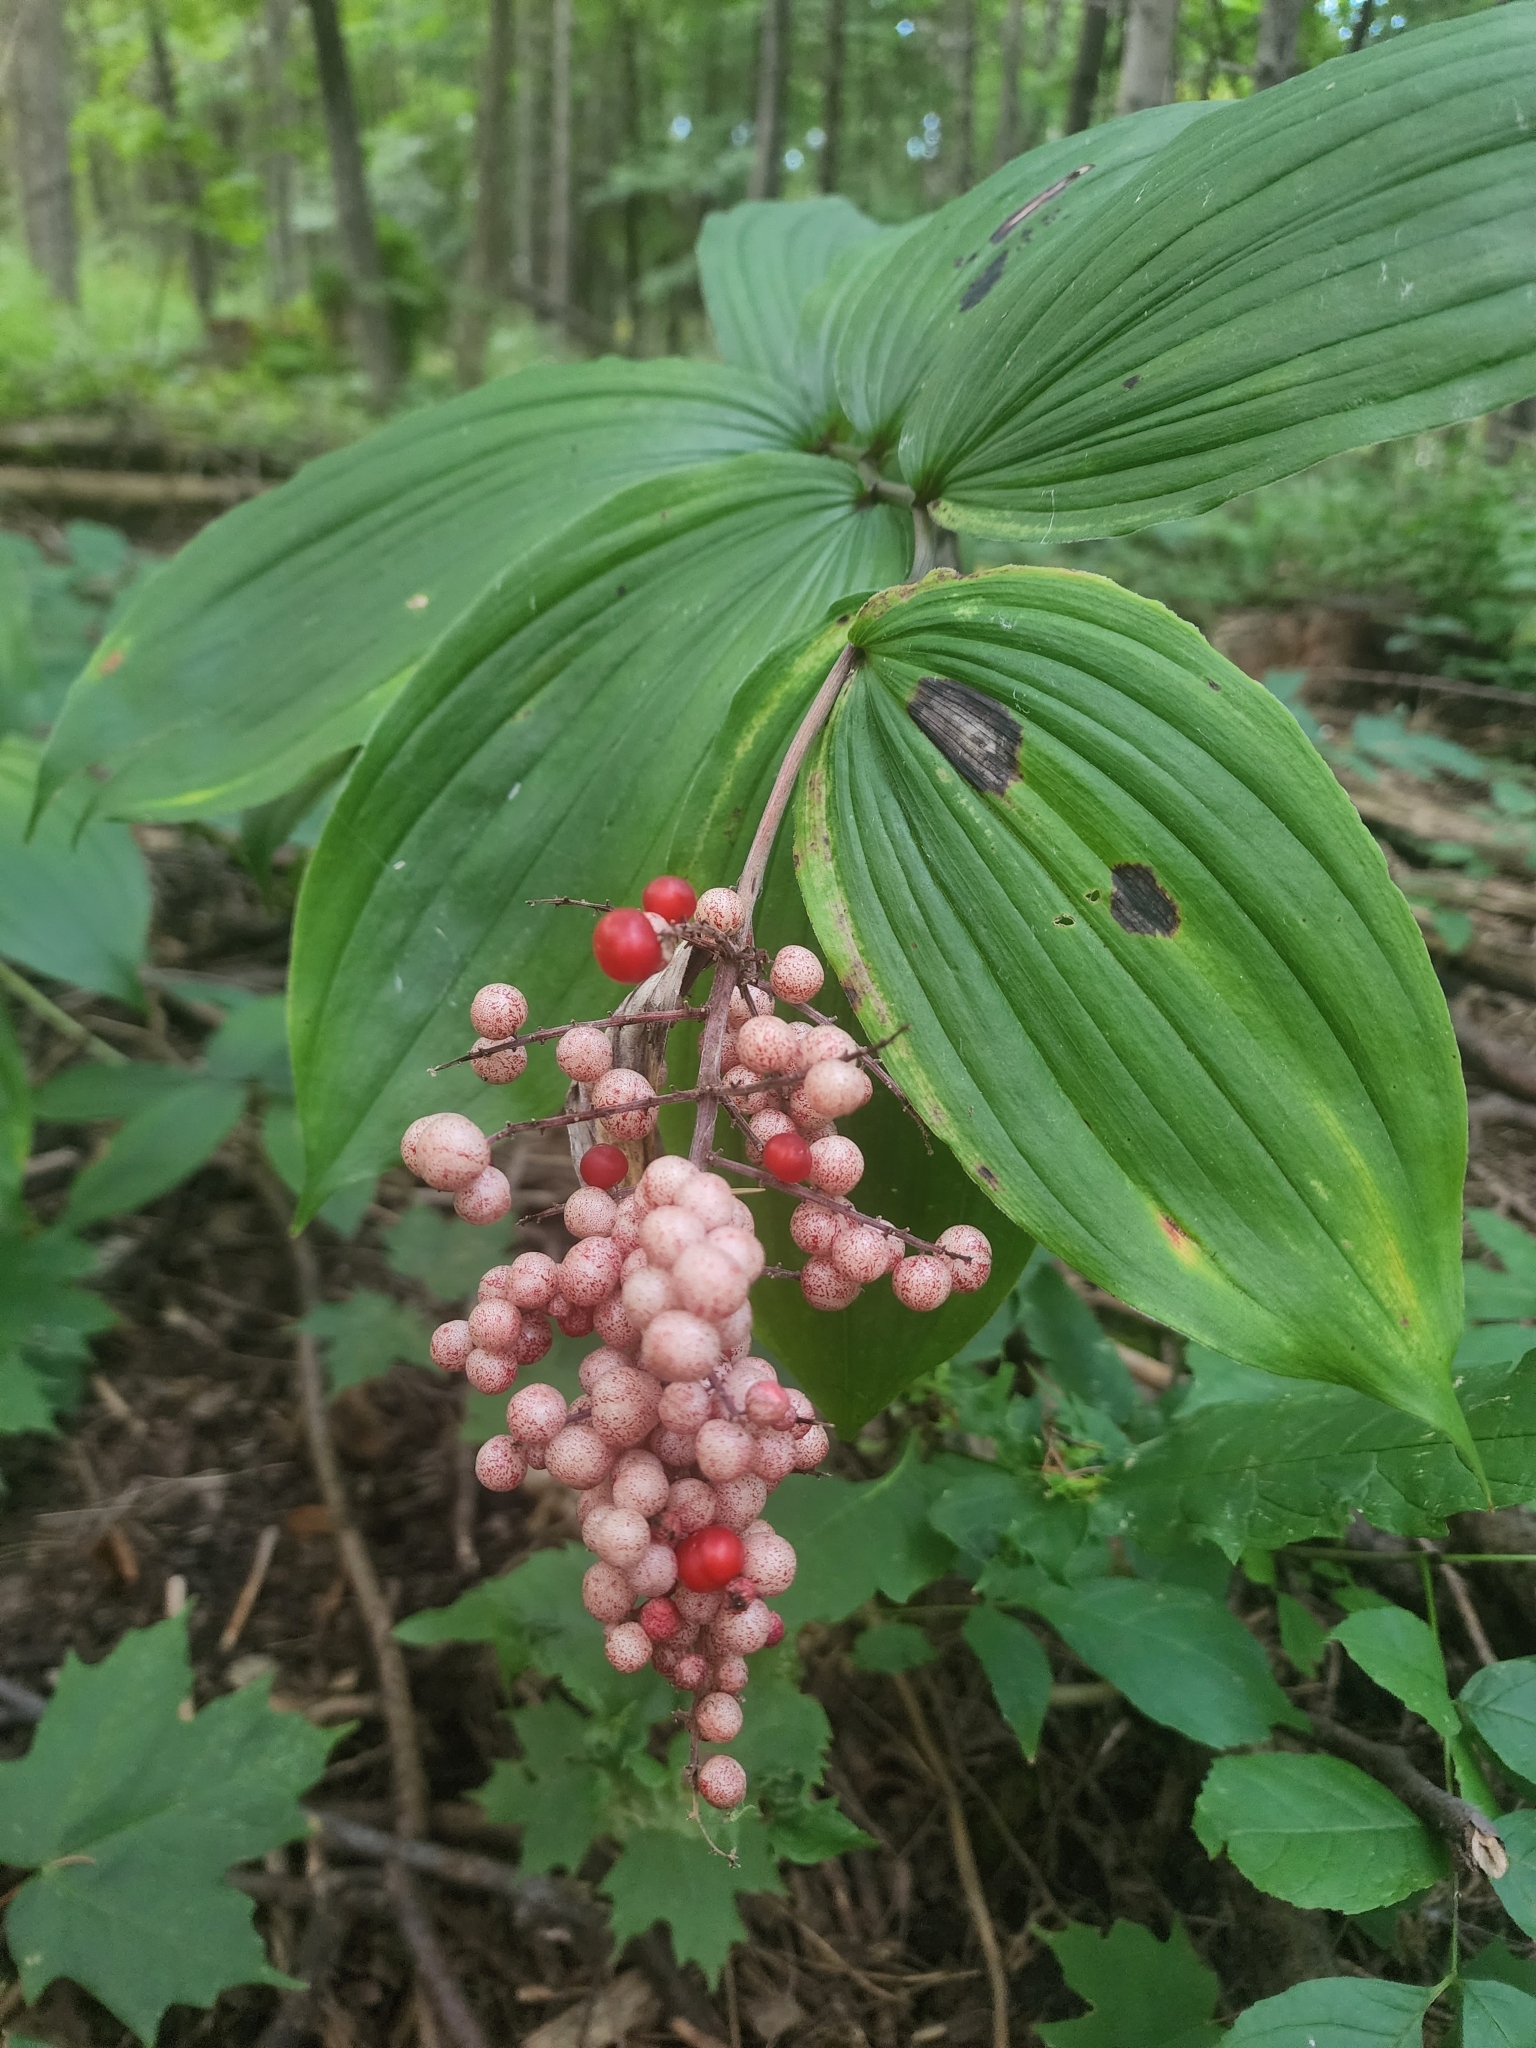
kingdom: Plantae
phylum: Tracheophyta
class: Liliopsida
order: Asparagales
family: Asparagaceae
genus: Maianthemum
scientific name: Maianthemum racemosum
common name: False spikenard
